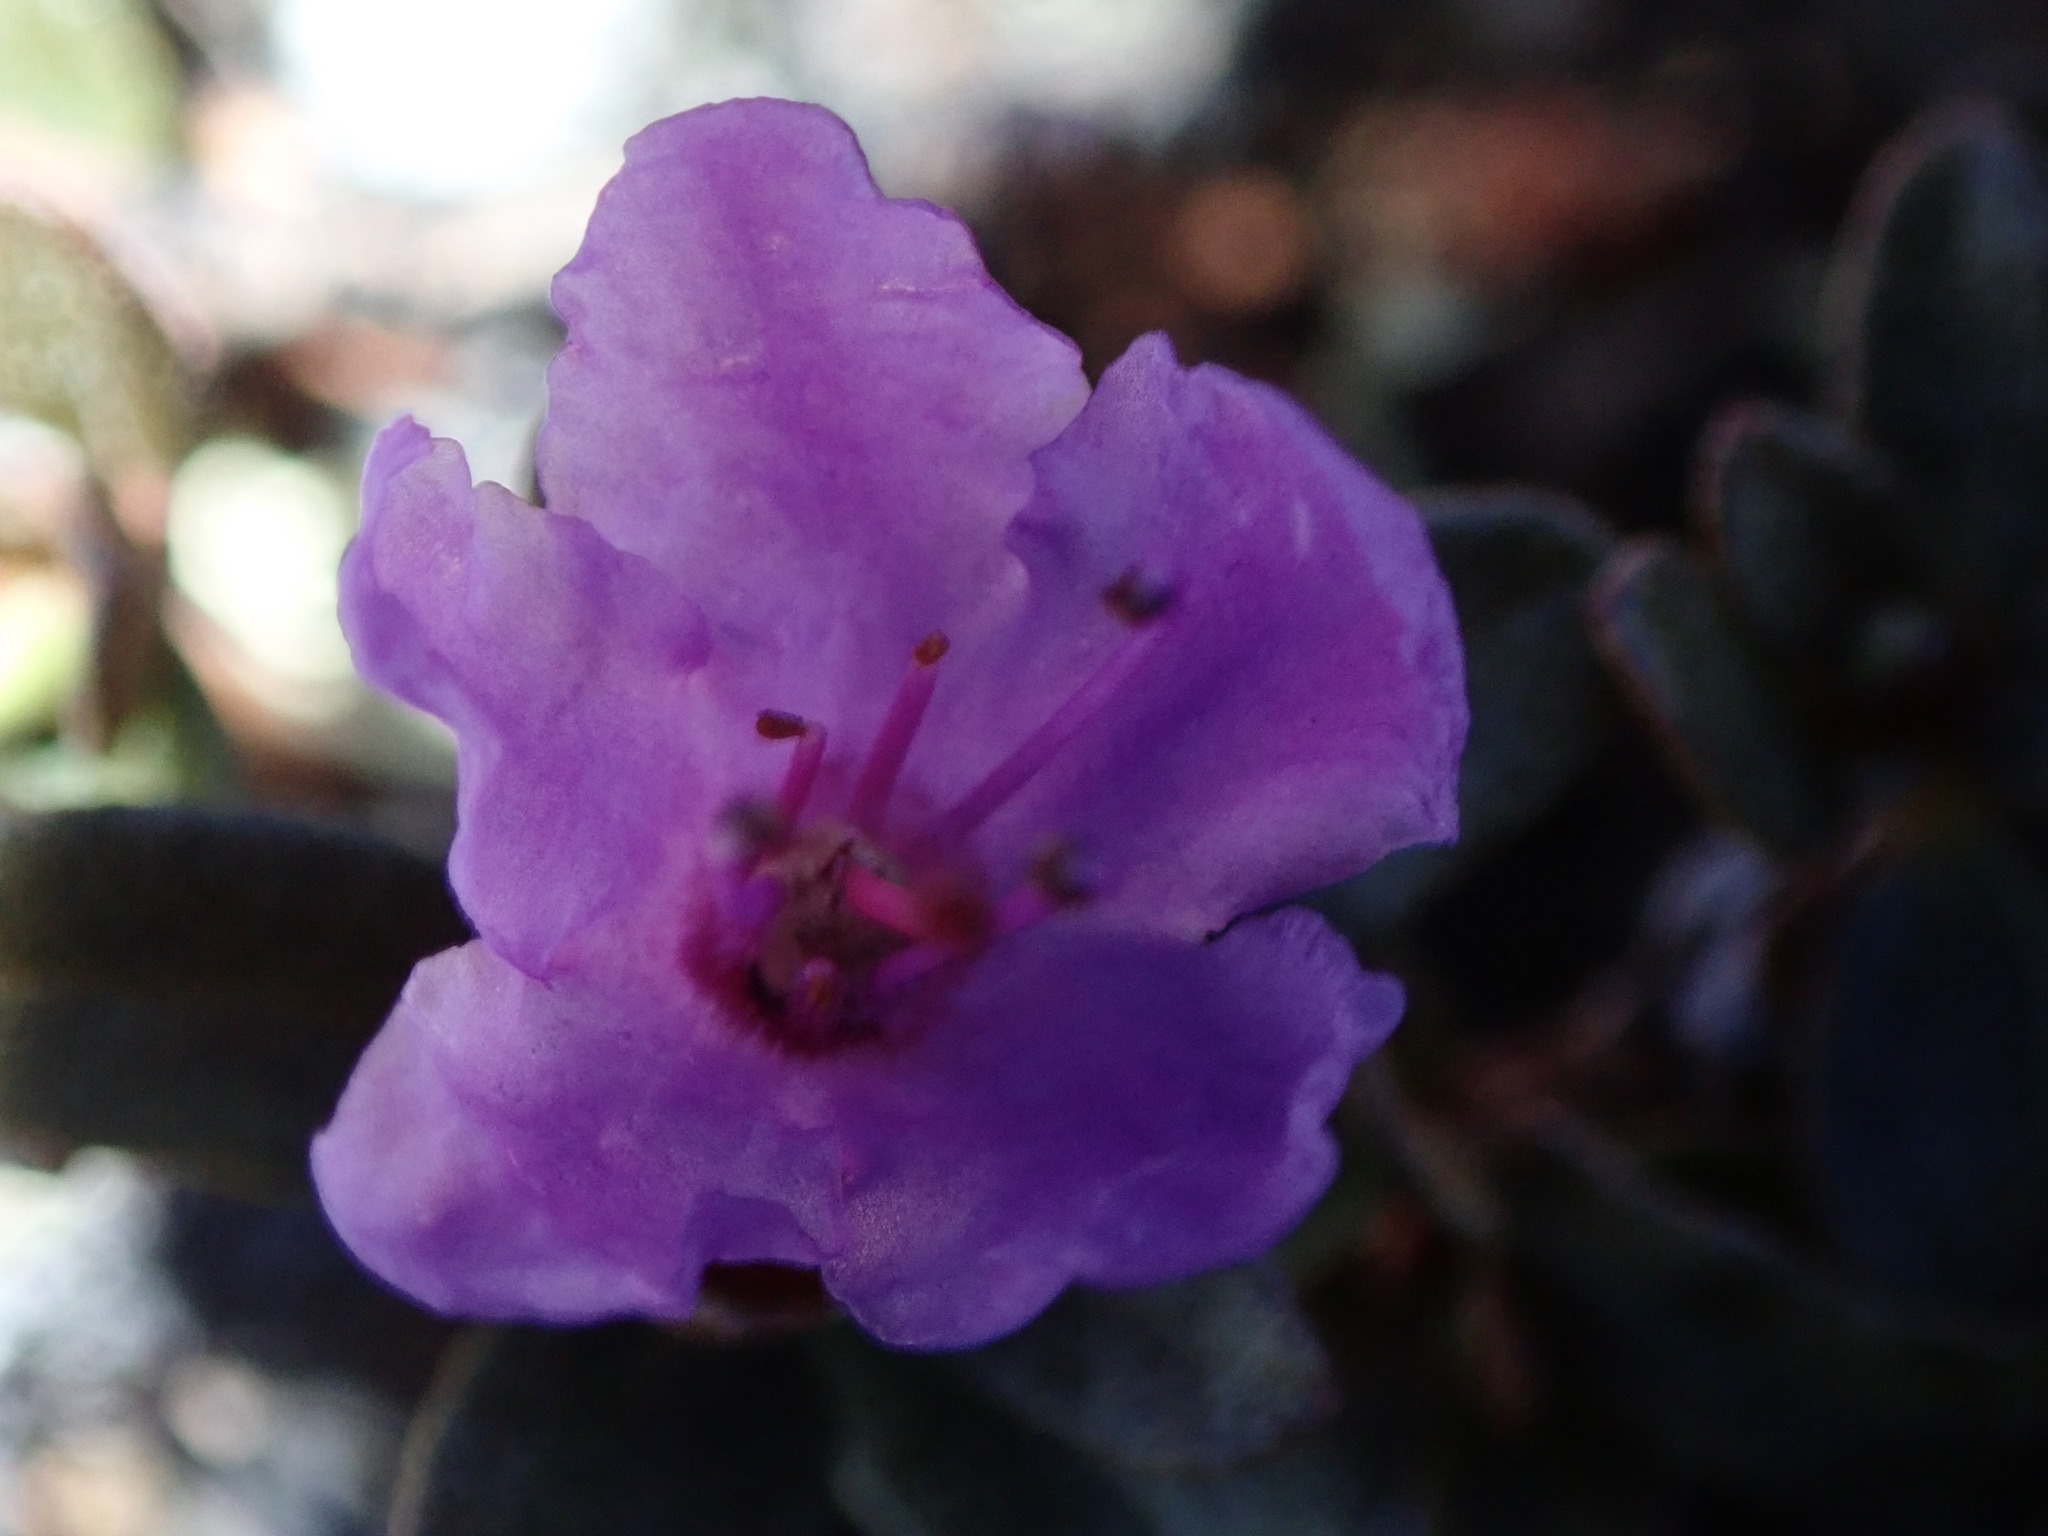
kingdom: Plantae
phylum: Tracheophyta
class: Magnoliopsida
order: Ericales
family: Ericaceae
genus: Rhododendron
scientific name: Rhododendron lapponicum
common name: Lapland rhododendron
